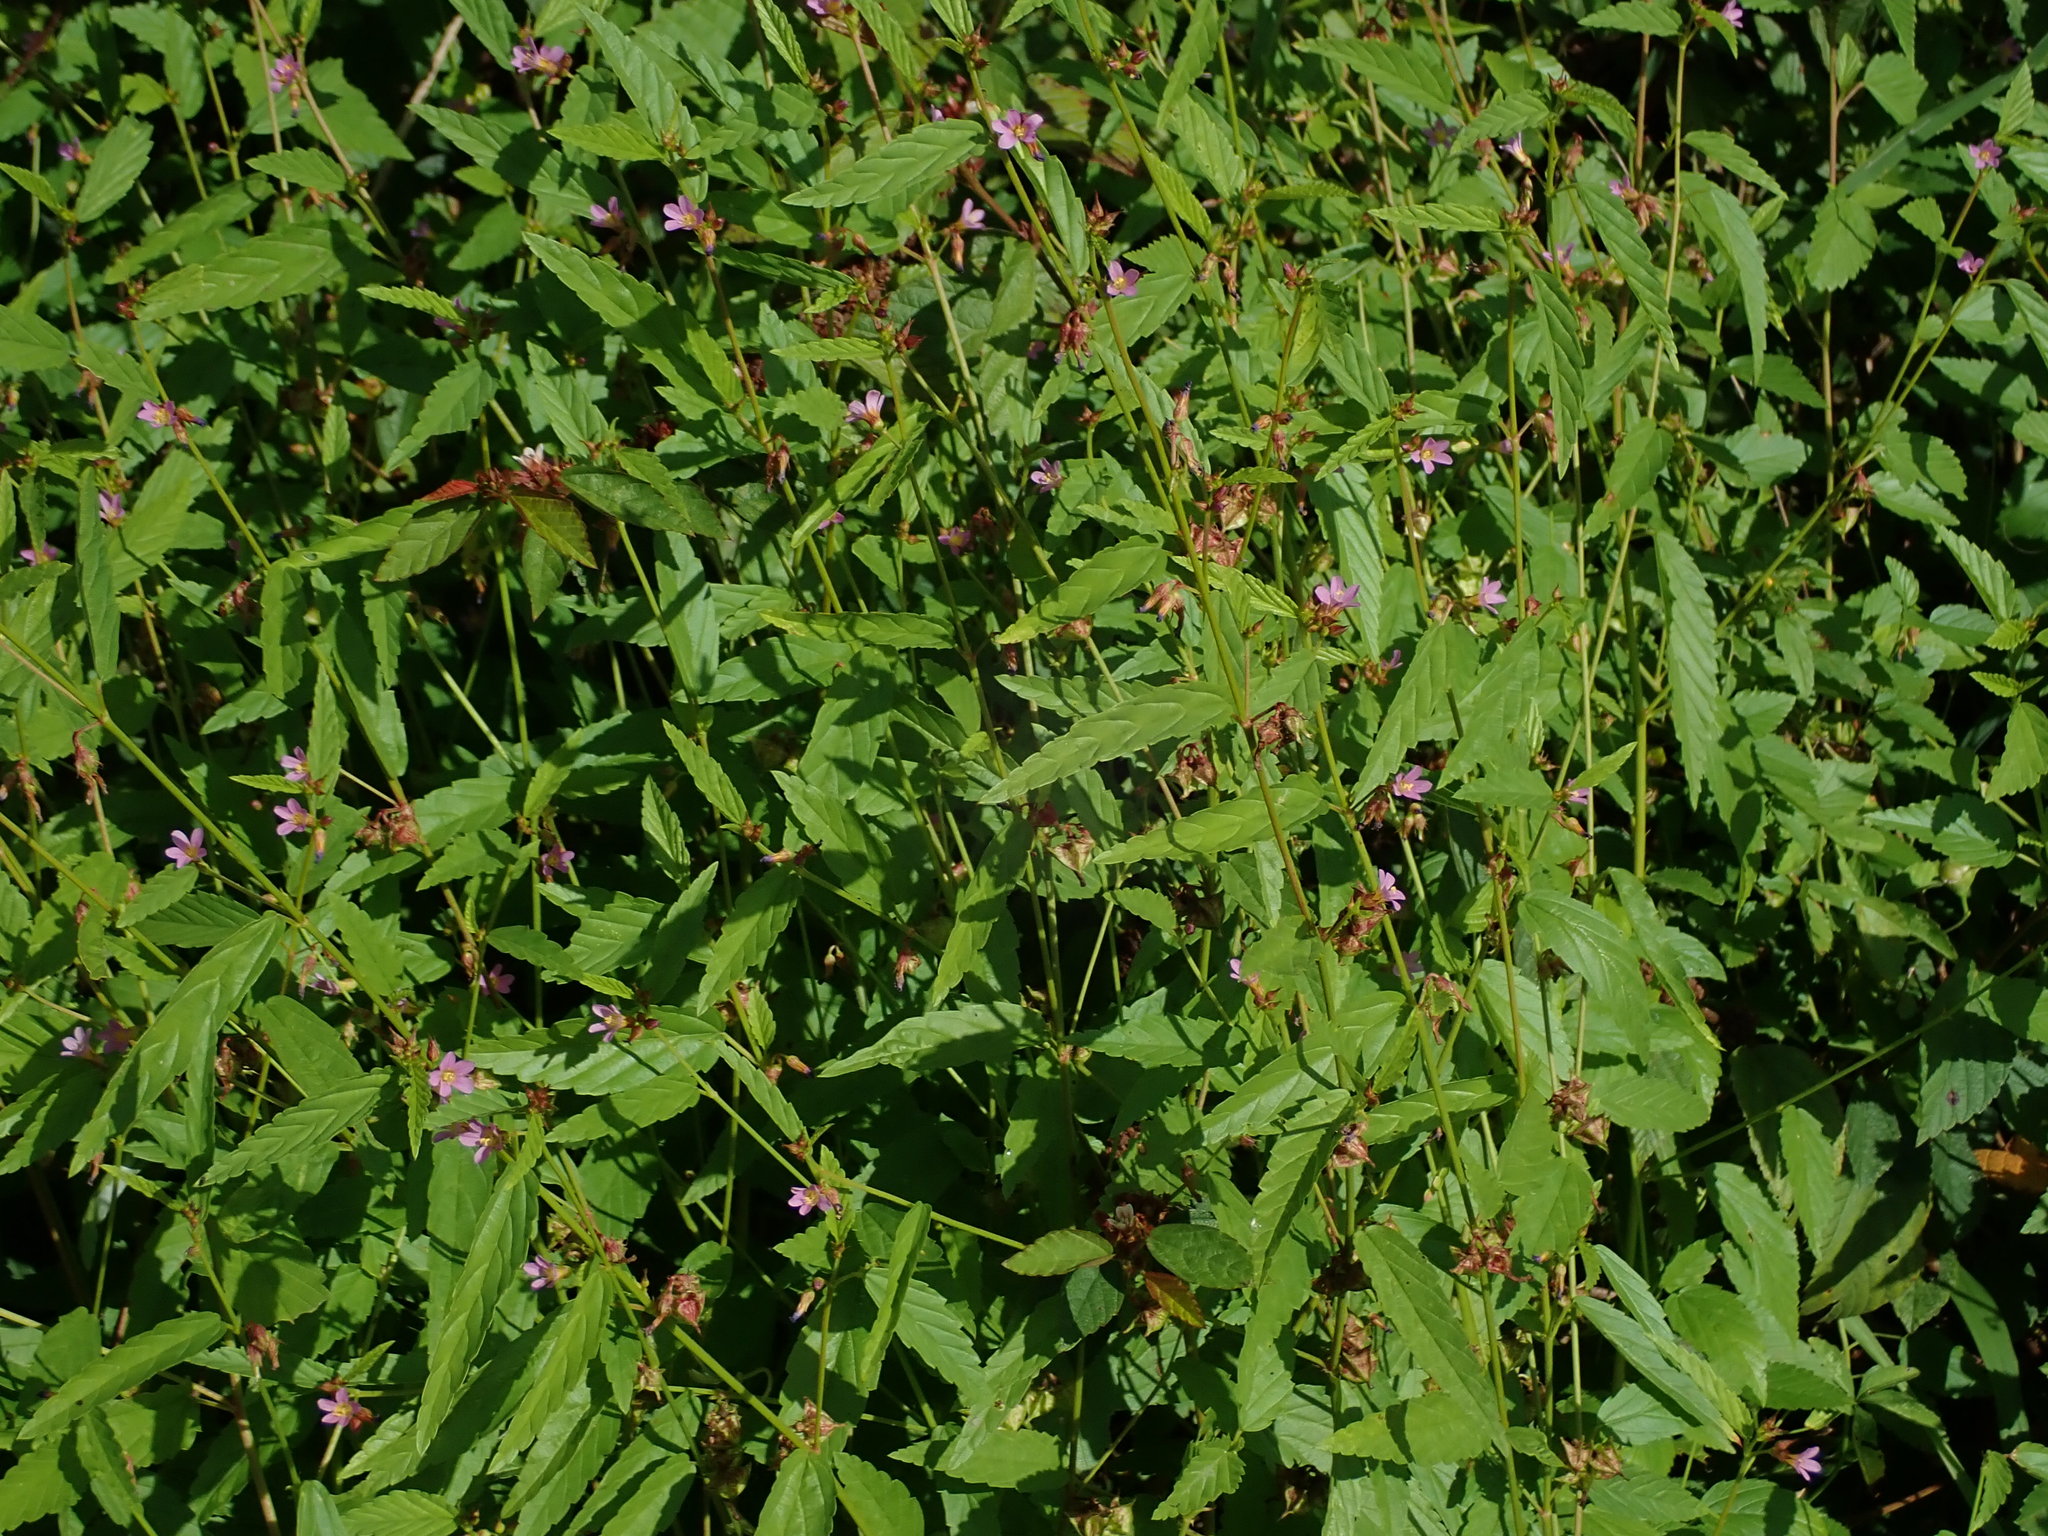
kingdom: Plantae
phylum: Tracheophyta
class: Magnoliopsida
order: Malvales
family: Malvaceae
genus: Melochia
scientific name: Melochia pyramidata
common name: Pyramidflower
